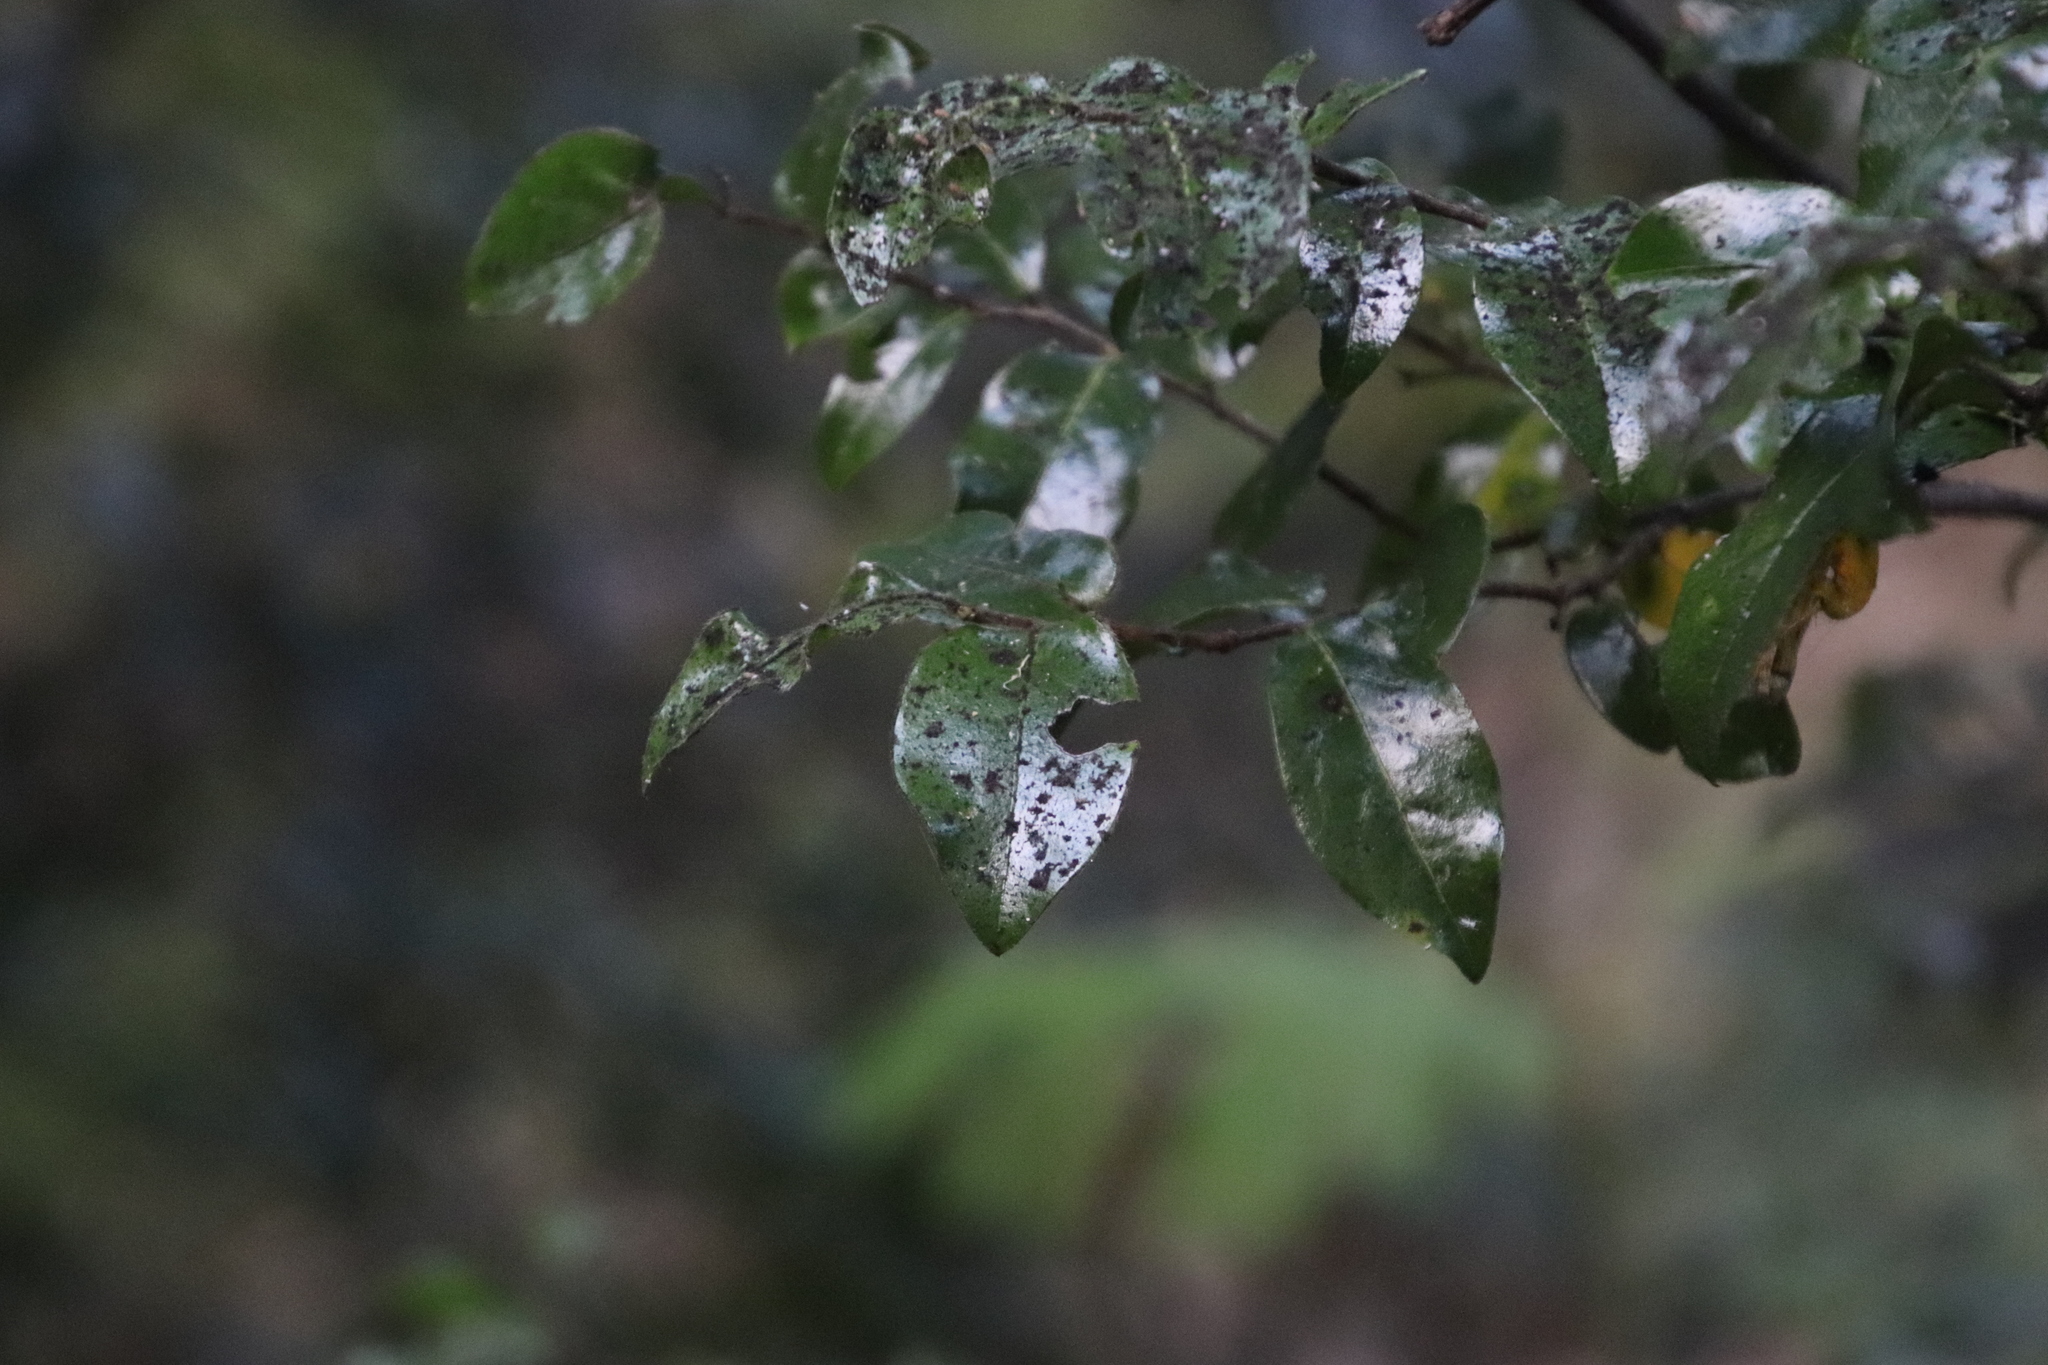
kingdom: Plantae
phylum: Tracheophyta
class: Magnoliopsida
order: Ericales
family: Ebenaceae
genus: Diospyros
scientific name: Diospyros whyteana
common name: Bladder-nut
